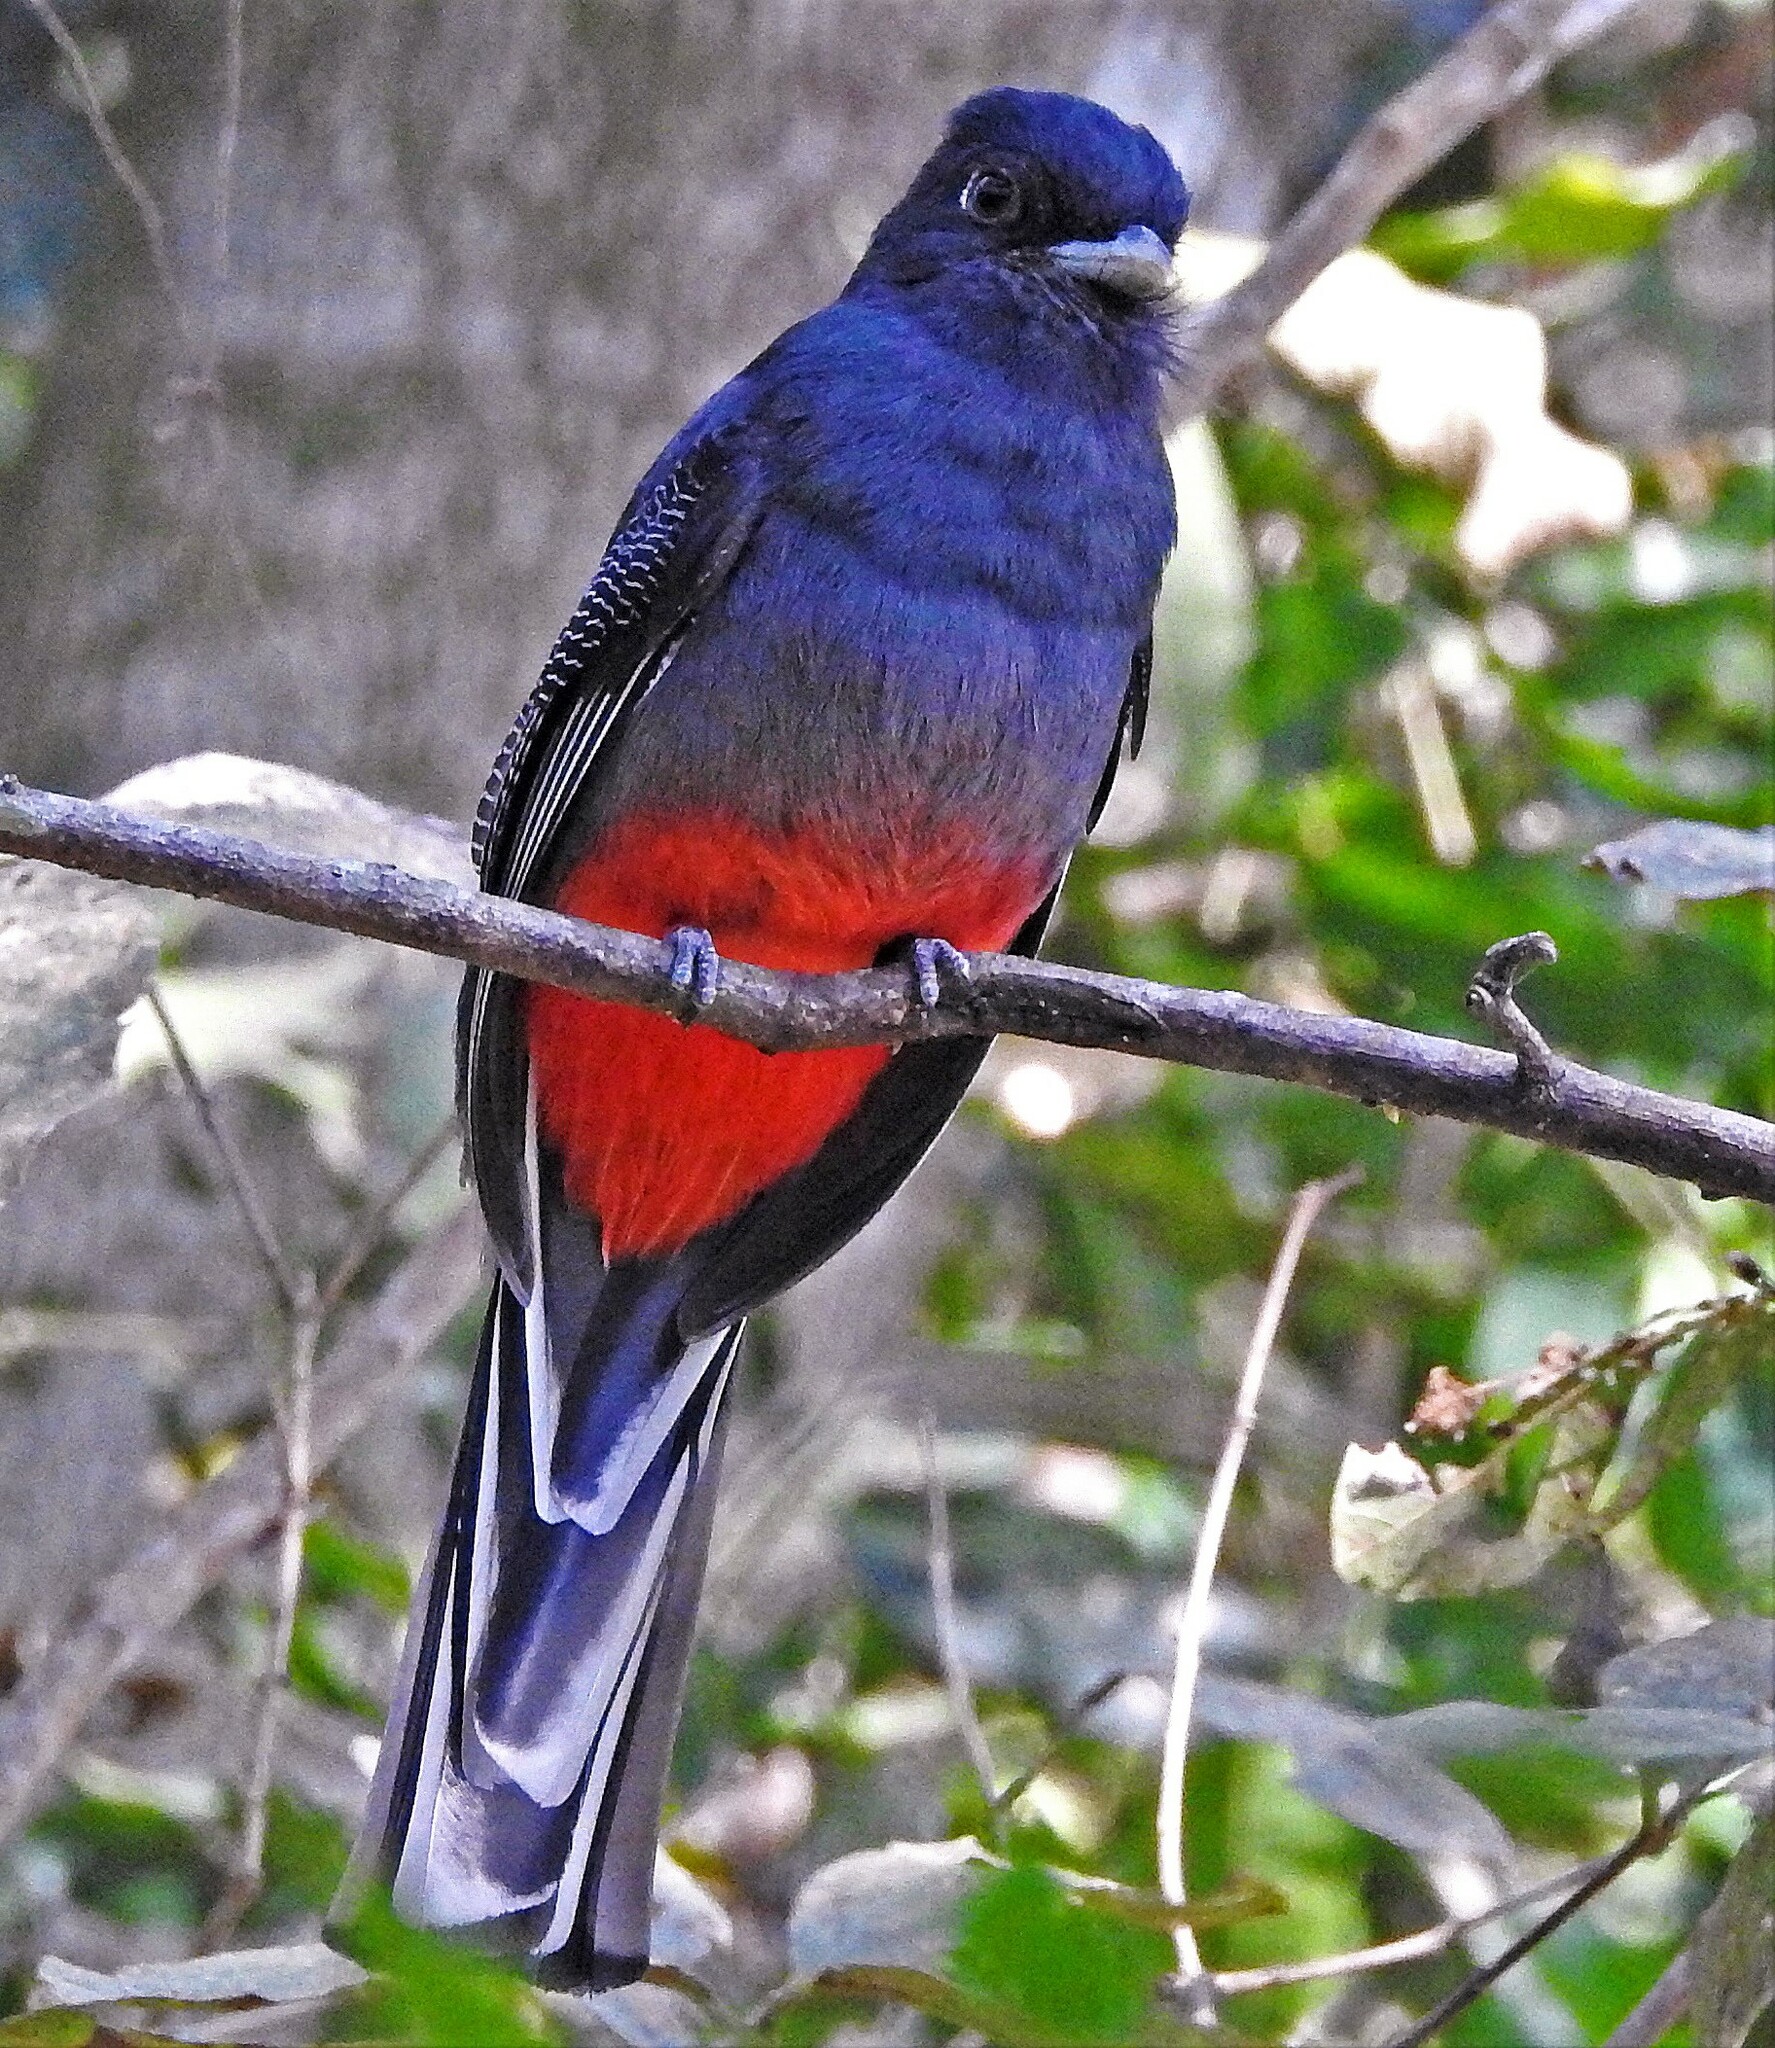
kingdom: Animalia
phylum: Chordata
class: Aves
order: Trogoniformes
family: Trogonidae
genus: Trogon
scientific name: Trogon surrucura
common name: Surucua trogon
